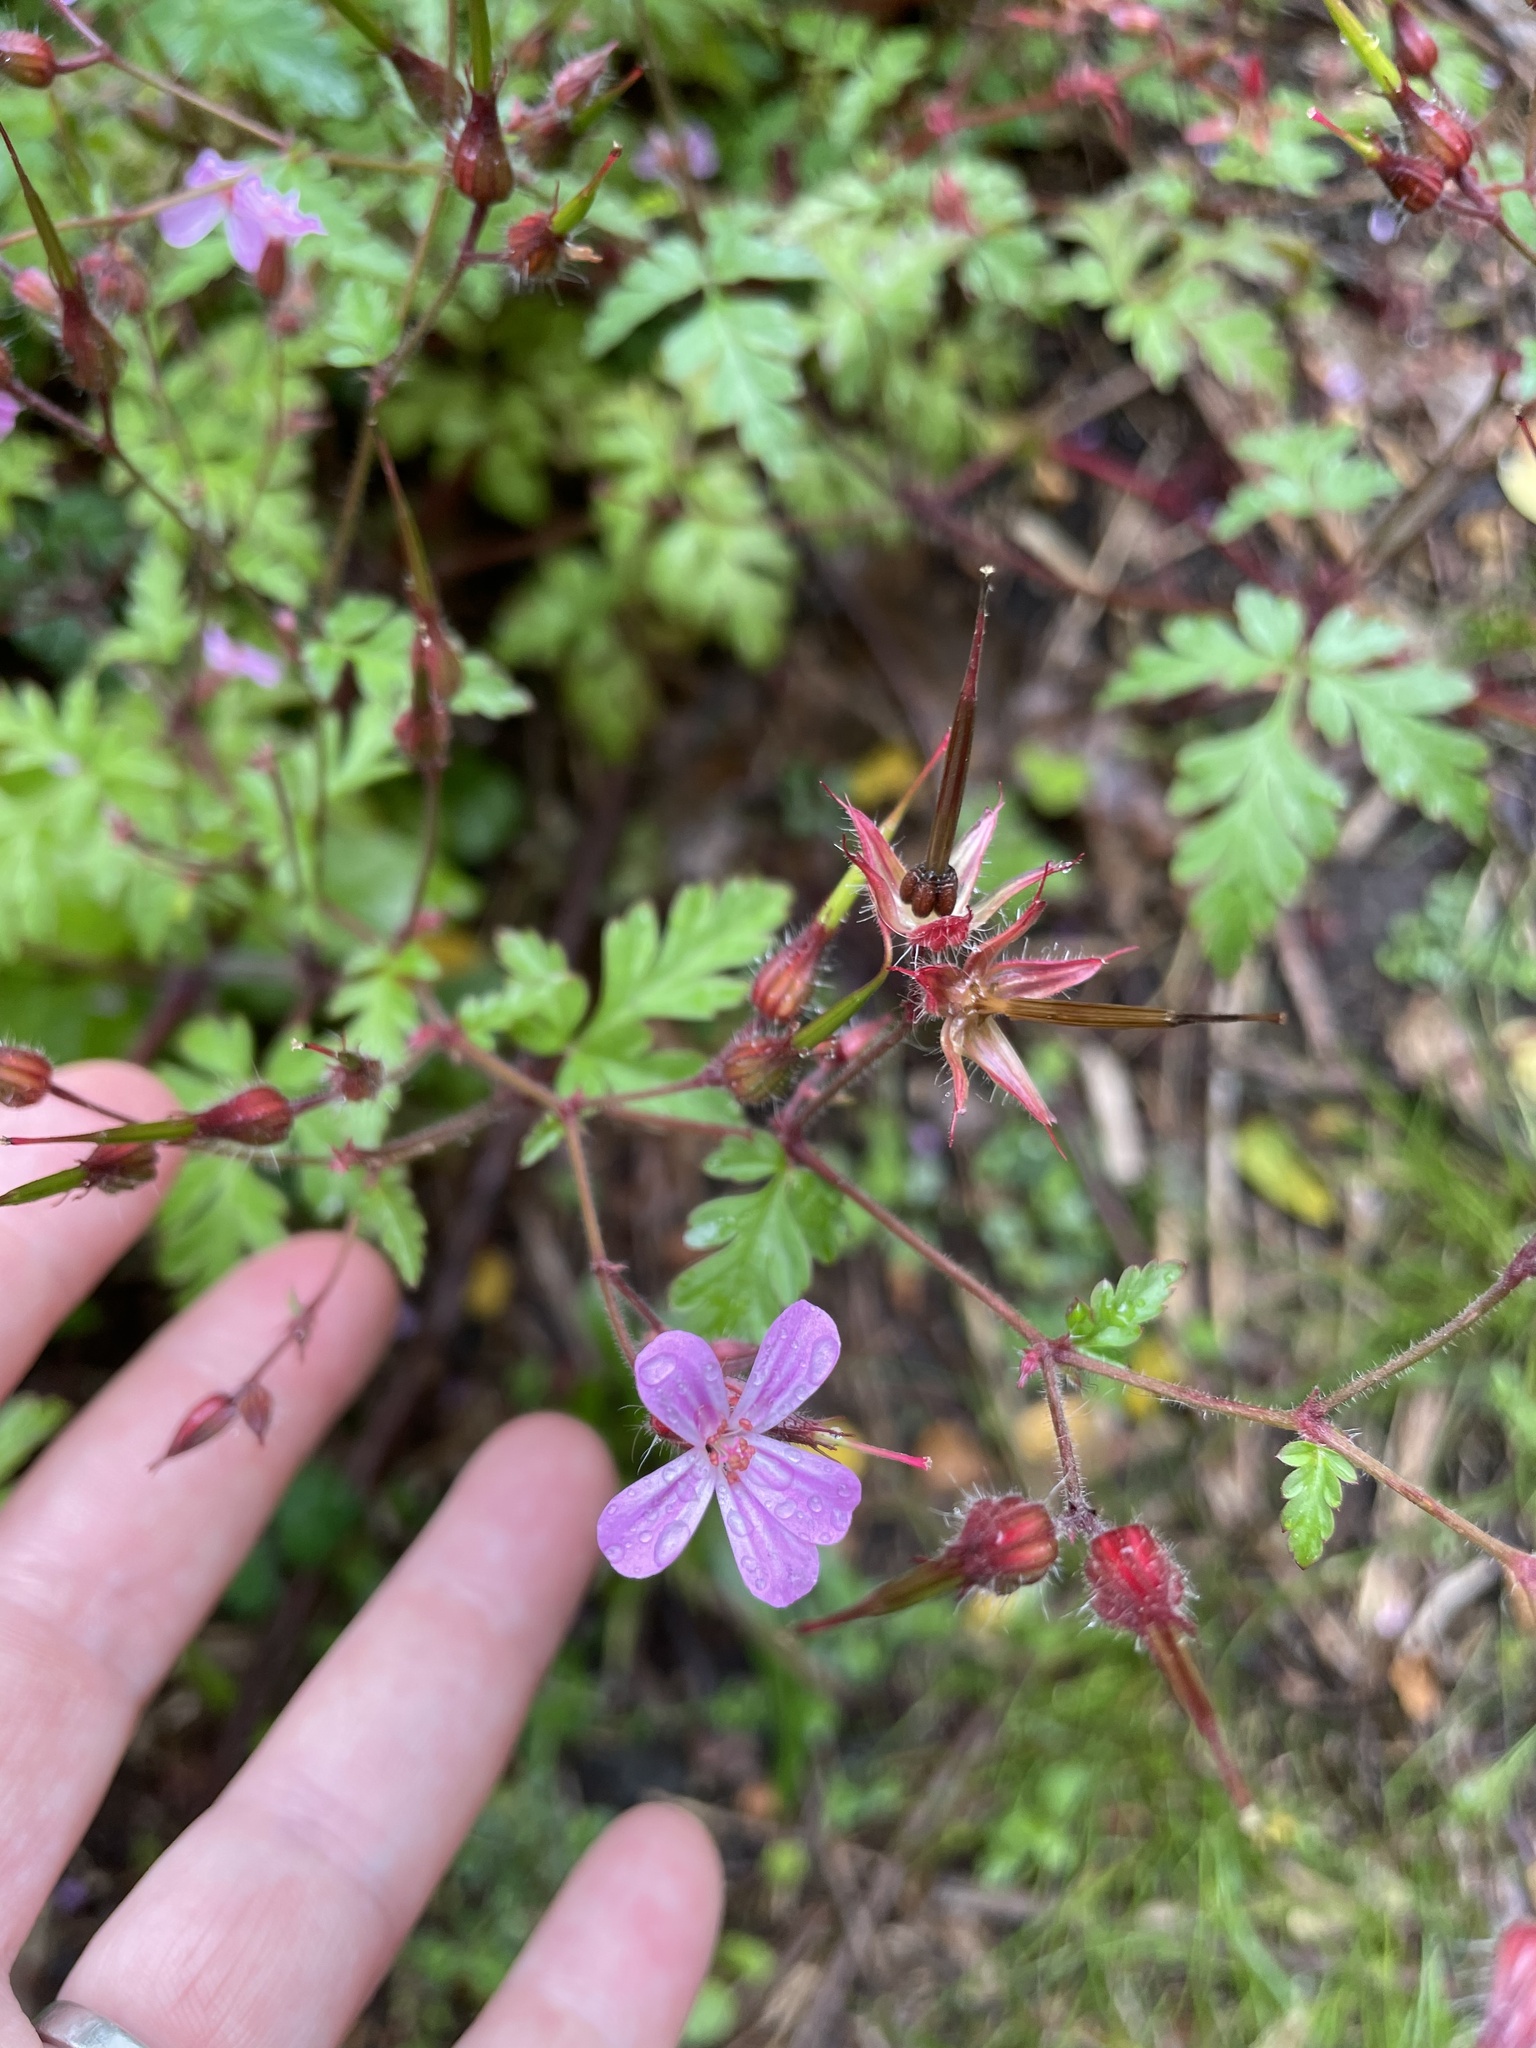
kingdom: Plantae
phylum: Tracheophyta
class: Magnoliopsida
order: Geraniales
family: Geraniaceae
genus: Geranium
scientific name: Geranium robertianum
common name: Herb-robert
